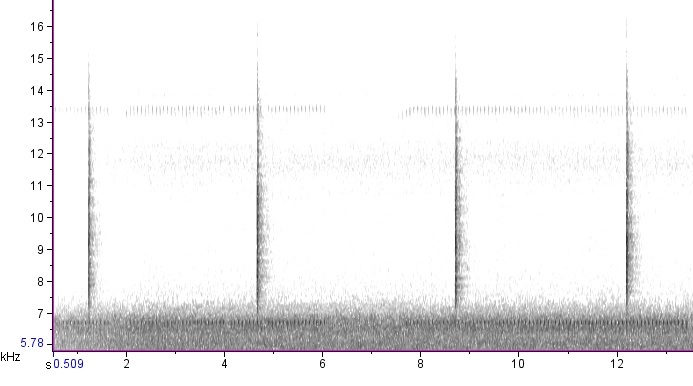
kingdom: Animalia
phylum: Arthropoda
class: Insecta
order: Orthoptera
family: Tettigoniidae
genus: Microcentrum
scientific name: Microcentrum rhombifolium
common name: Broad-winged katydid
